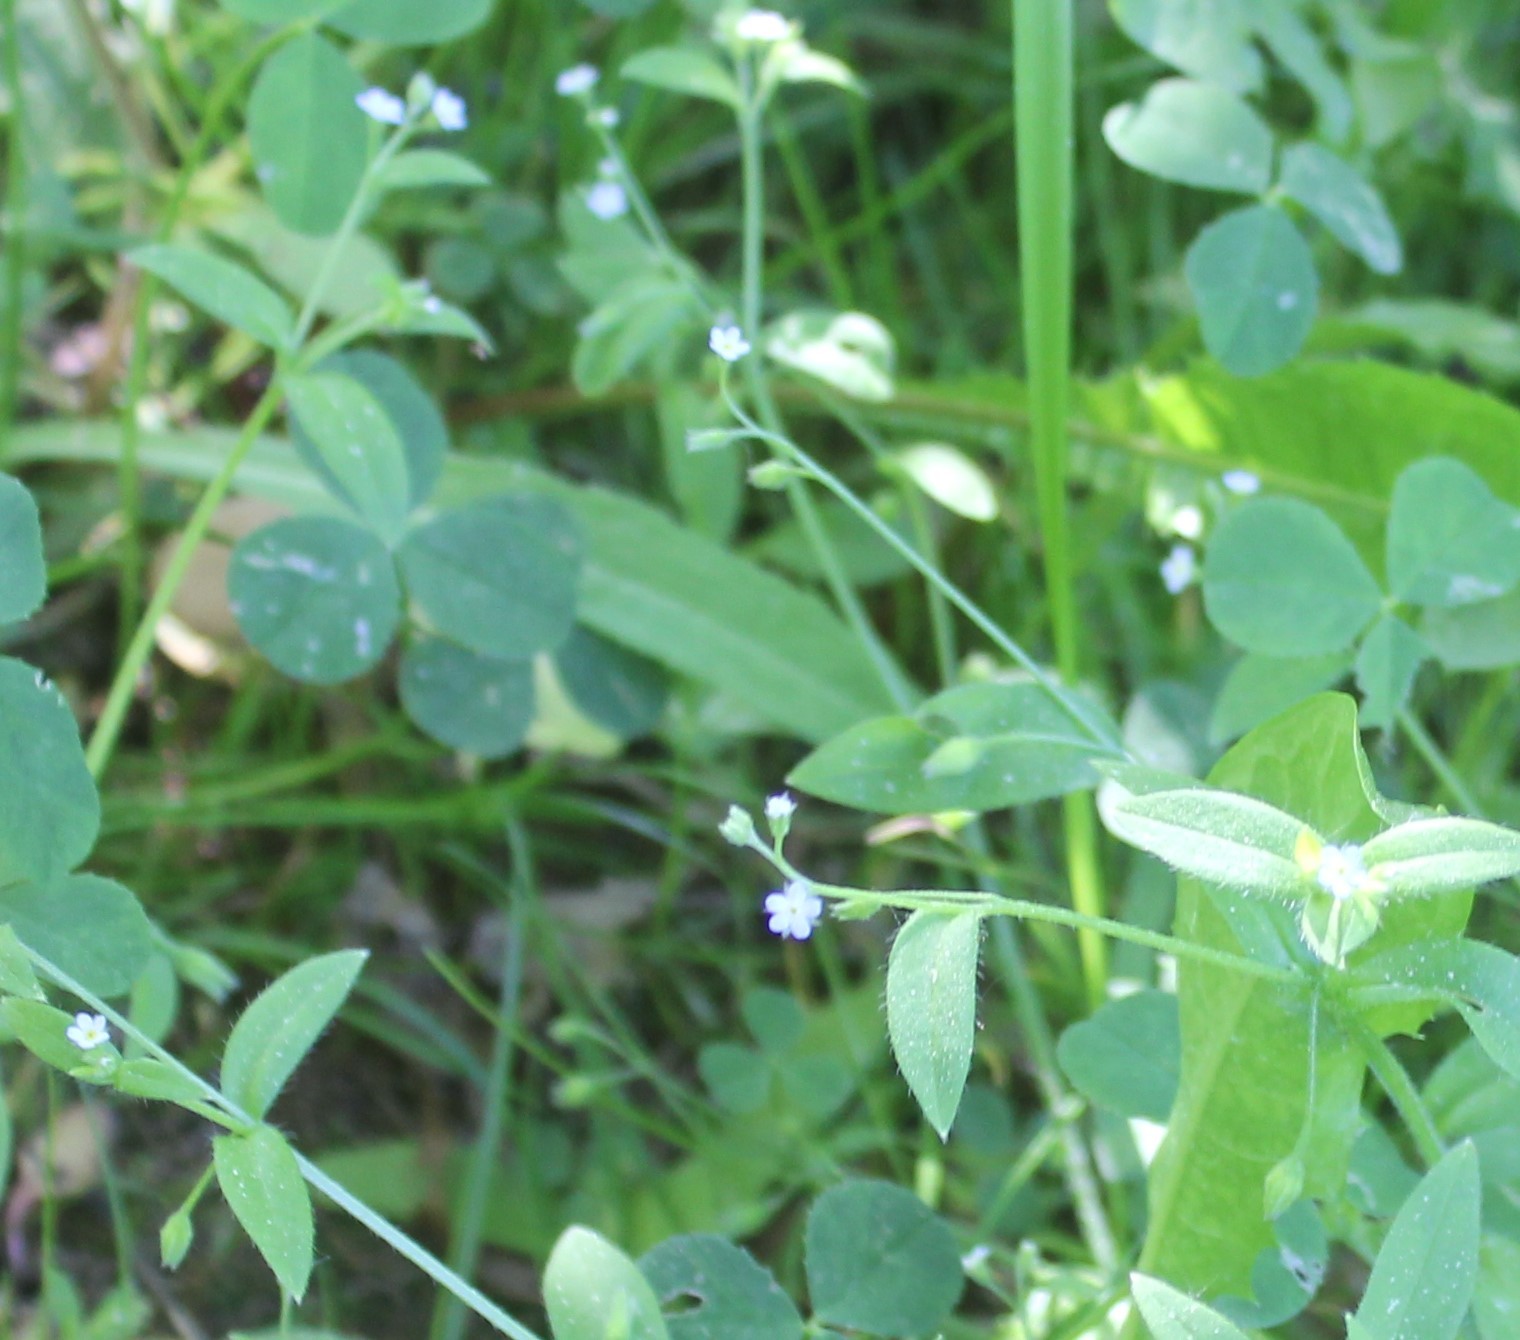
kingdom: Plantae
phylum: Tracheophyta
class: Magnoliopsida
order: Boraginales
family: Boraginaceae
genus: Myosotis
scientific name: Myosotis sparsiflora
